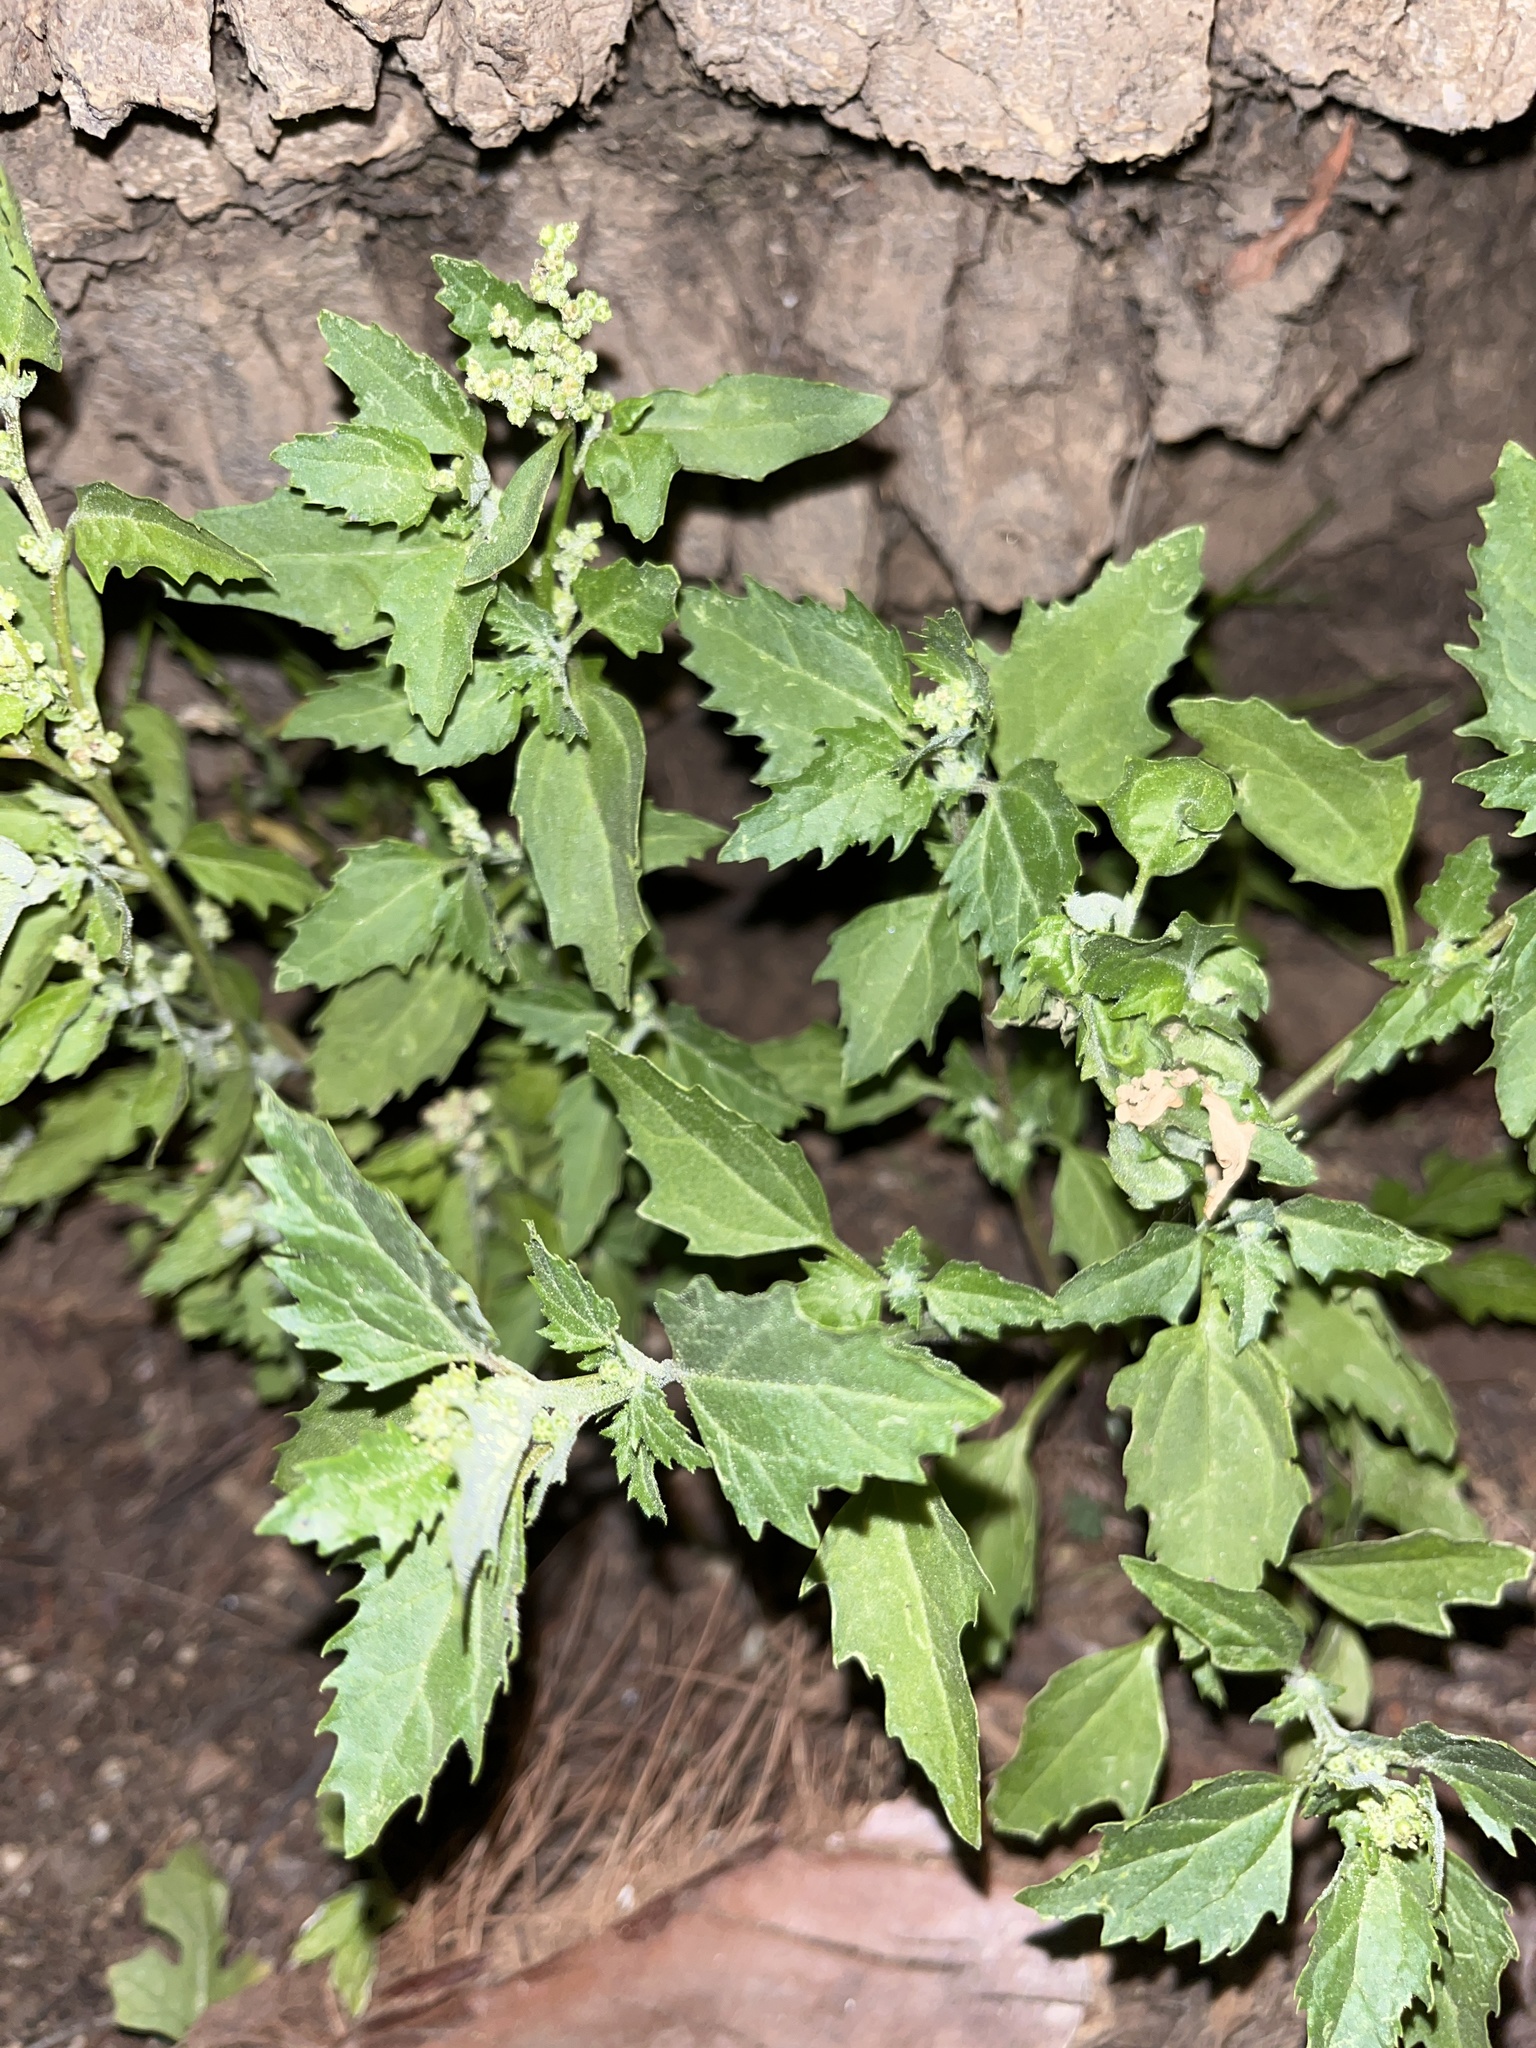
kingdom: Plantae
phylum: Tracheophyta
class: Magnoliopsida
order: Caryophyllales
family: Amaranthaceae
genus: Chenopodiastrum
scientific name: Chenopodiastrum murale
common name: Sowbane
